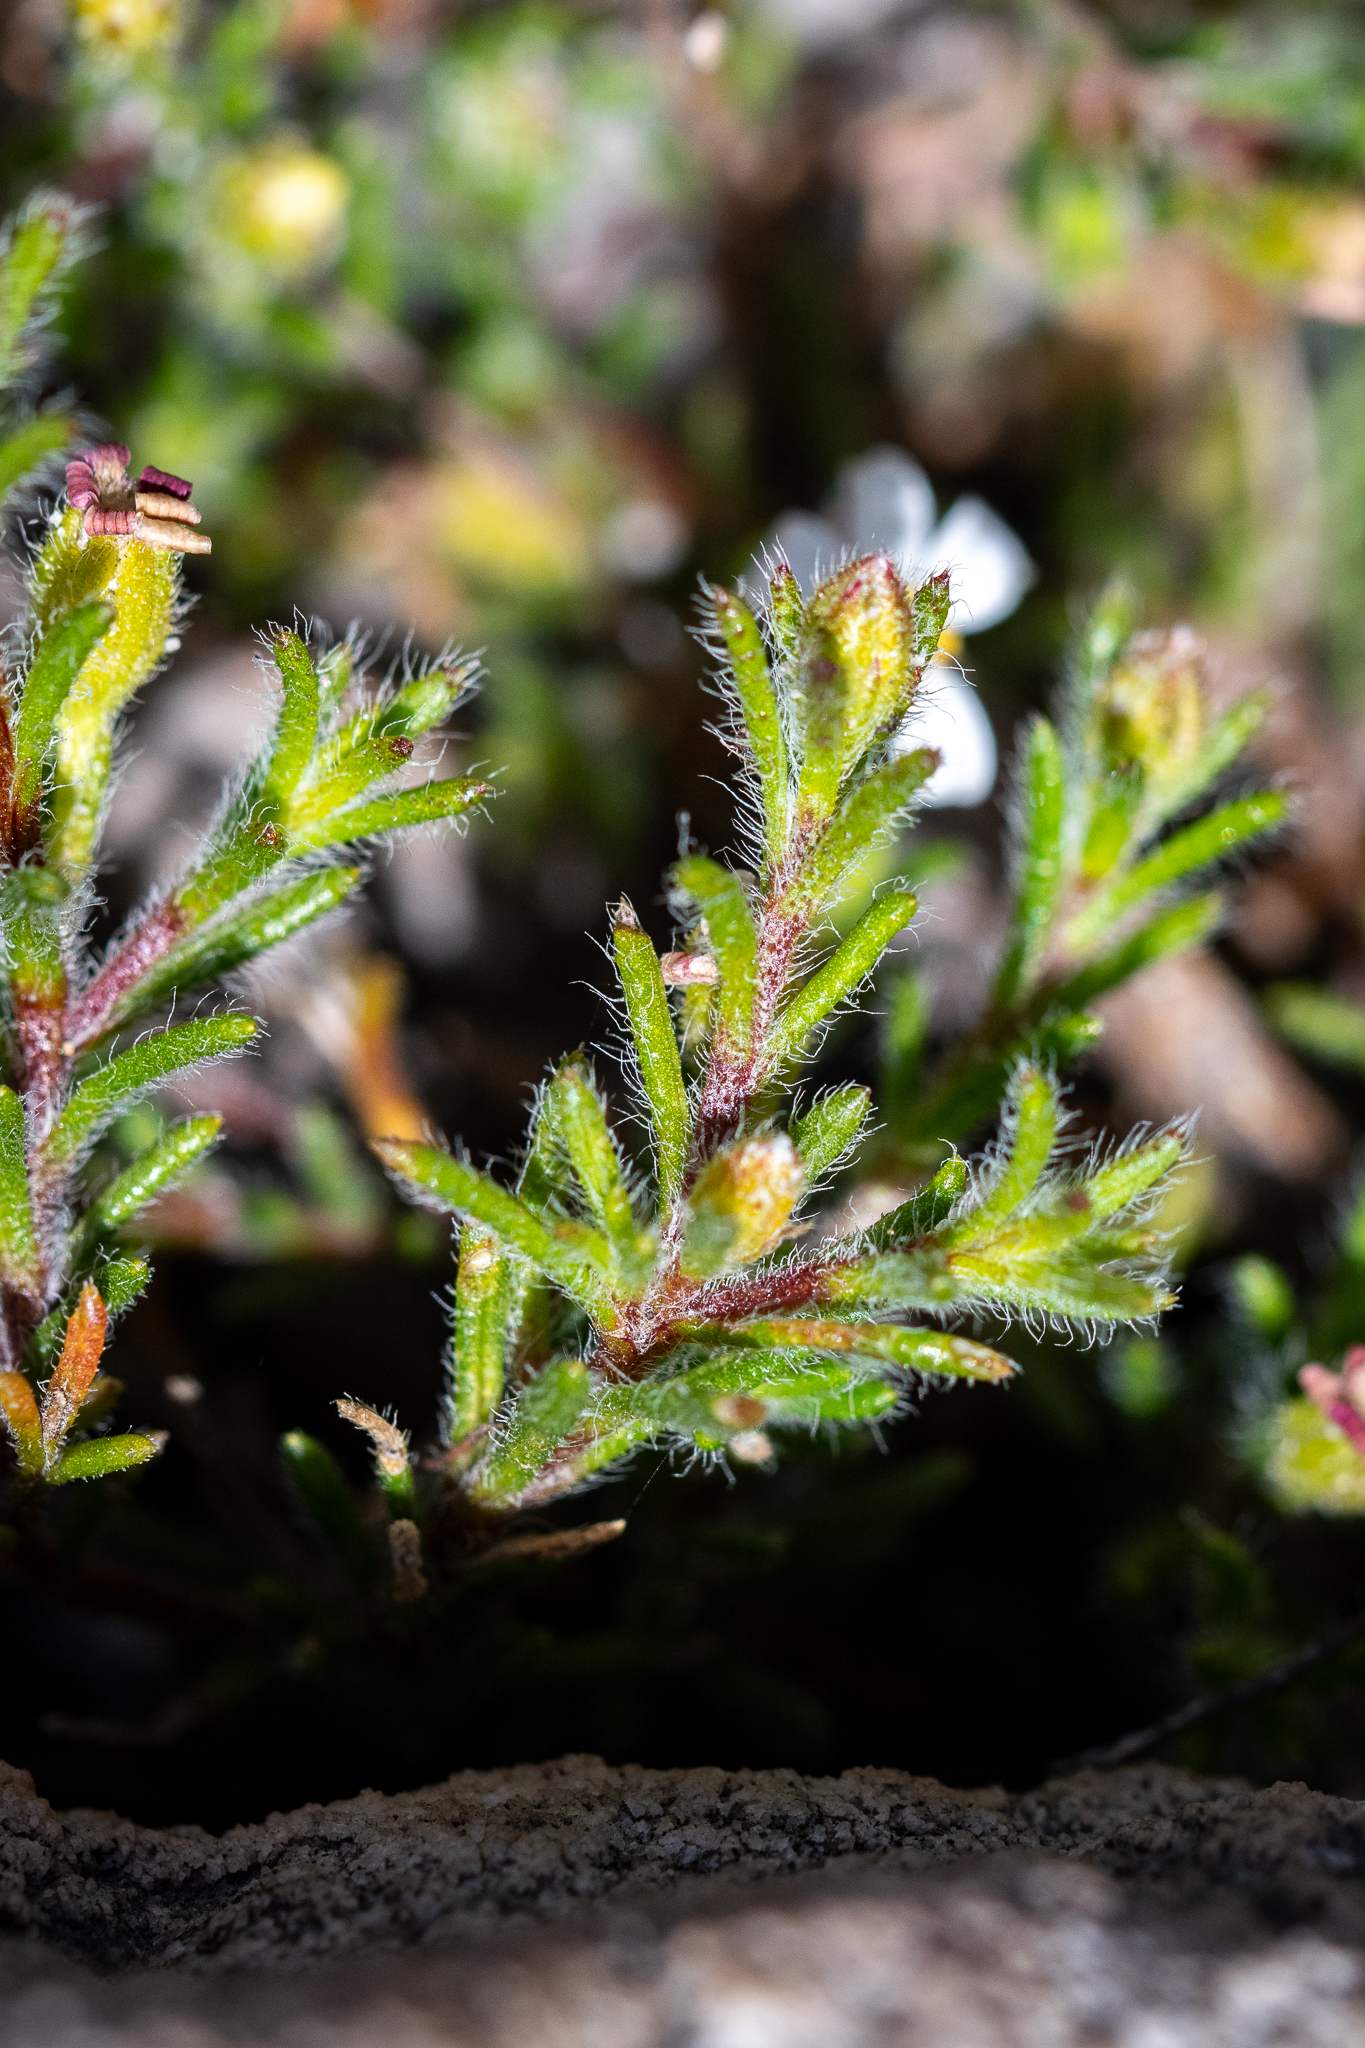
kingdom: Plantae
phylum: Tracheophyta
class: Magnoliopsida
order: Asterales
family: Asteraceae
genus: Zyrphelis
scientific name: Zyrphelis foliosa
